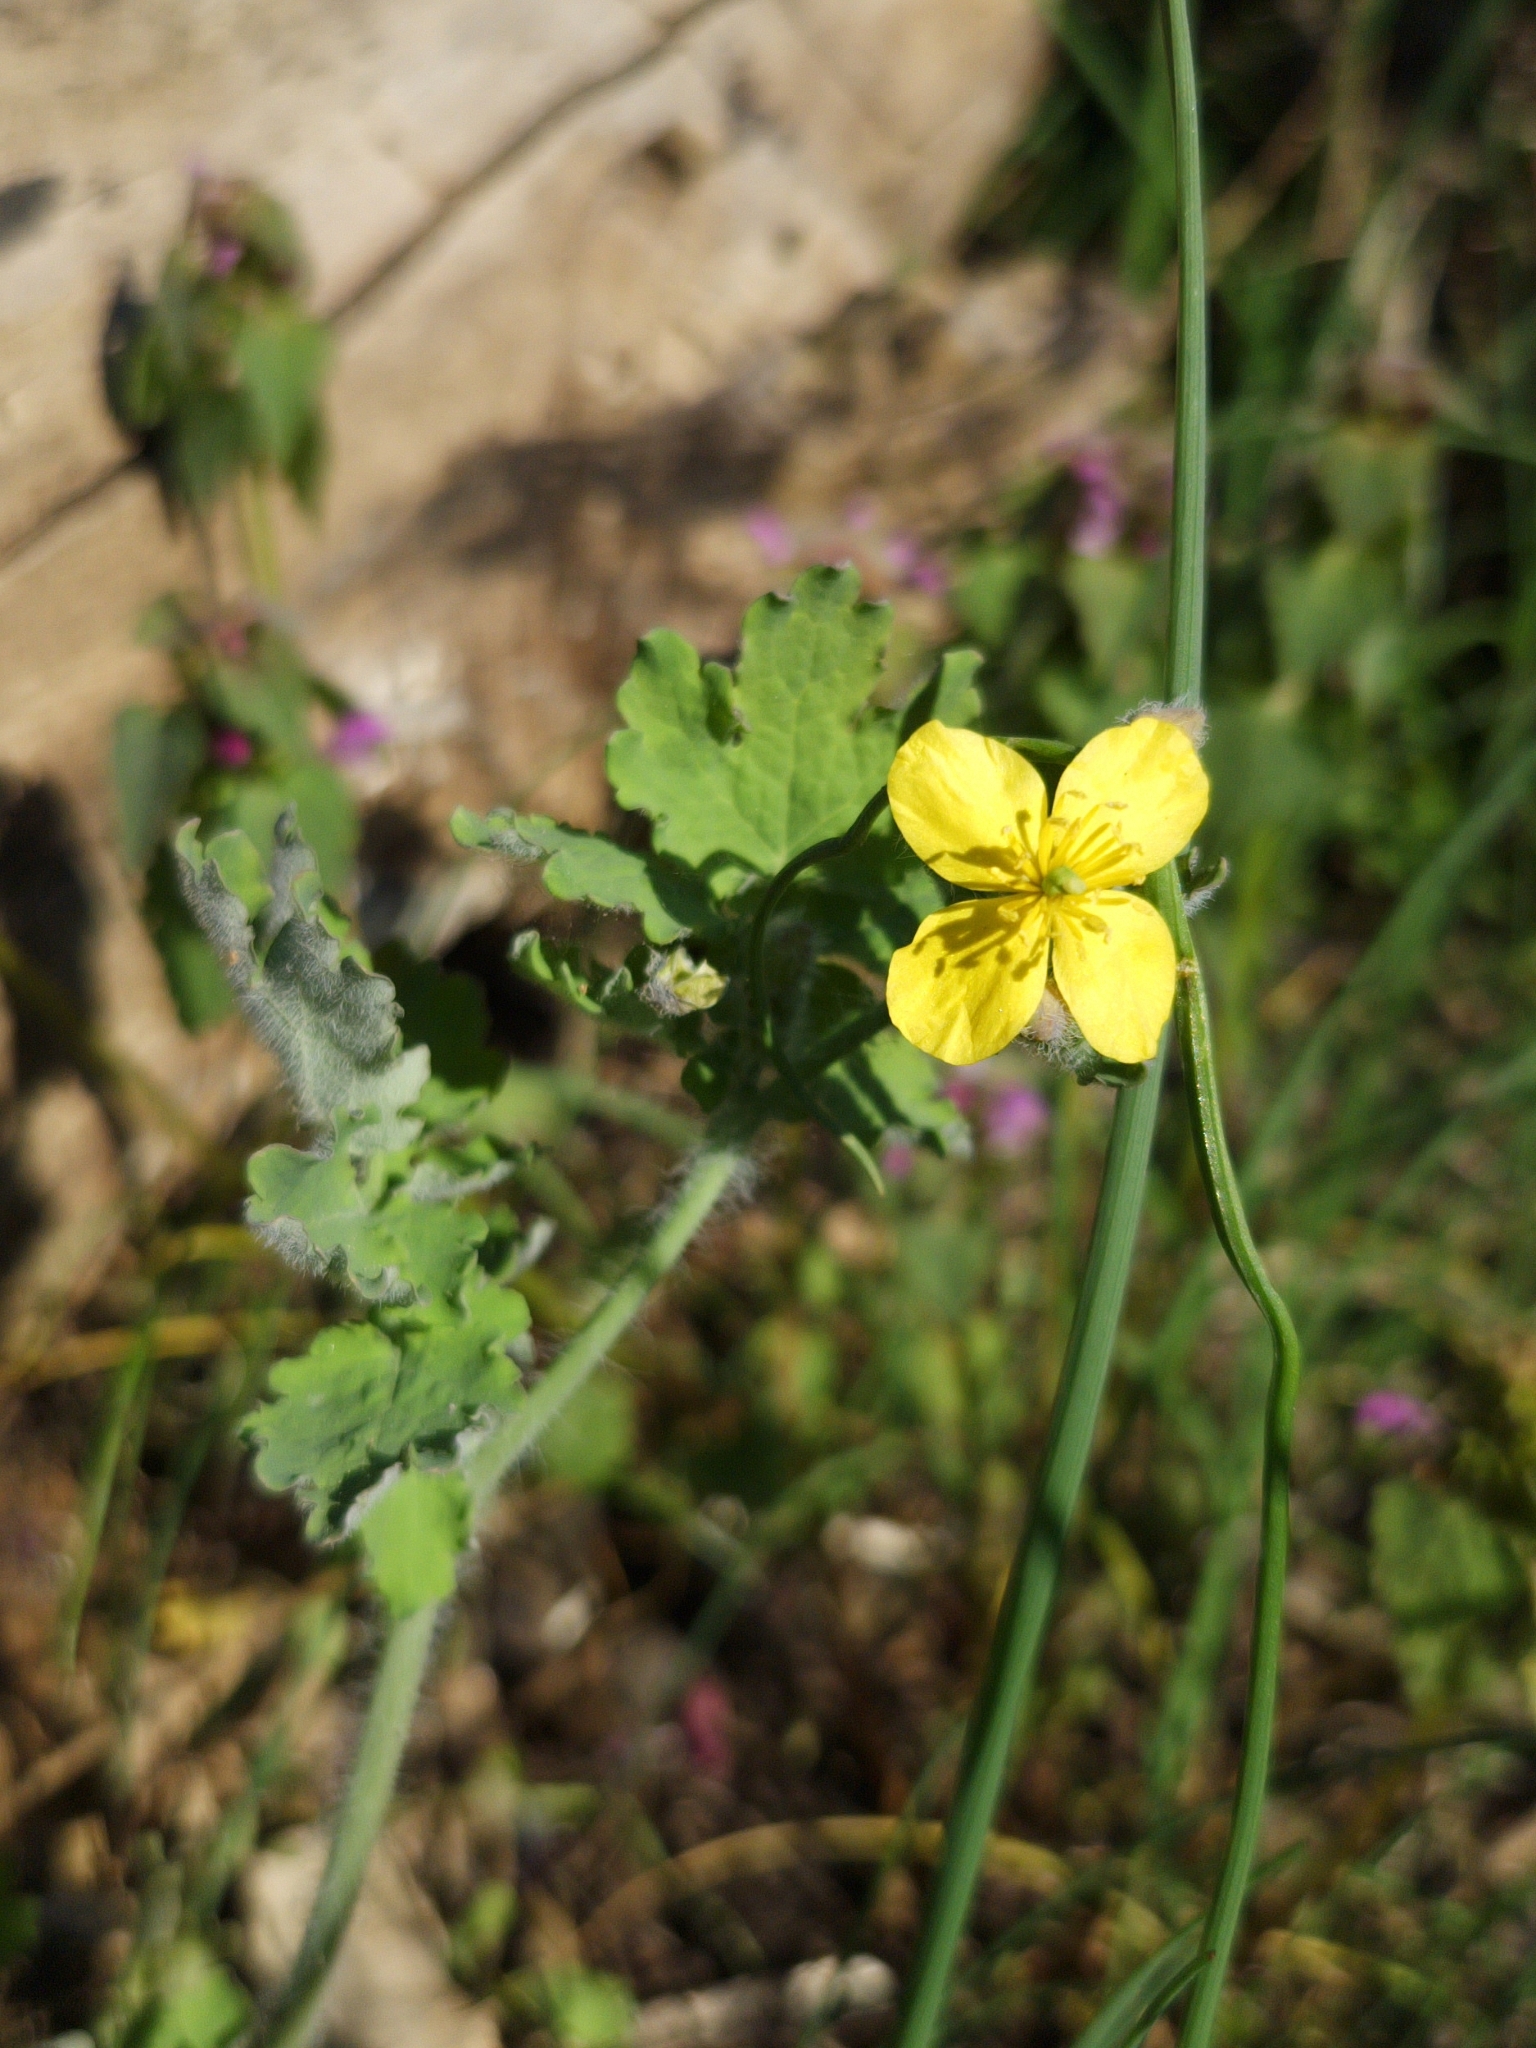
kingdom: Plantae
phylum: Tracheophyta
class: Magnoliopsida
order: Ranunculales
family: Papaveraceae
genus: Chelidonium
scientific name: Chelidonium majus
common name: Greater celandine
